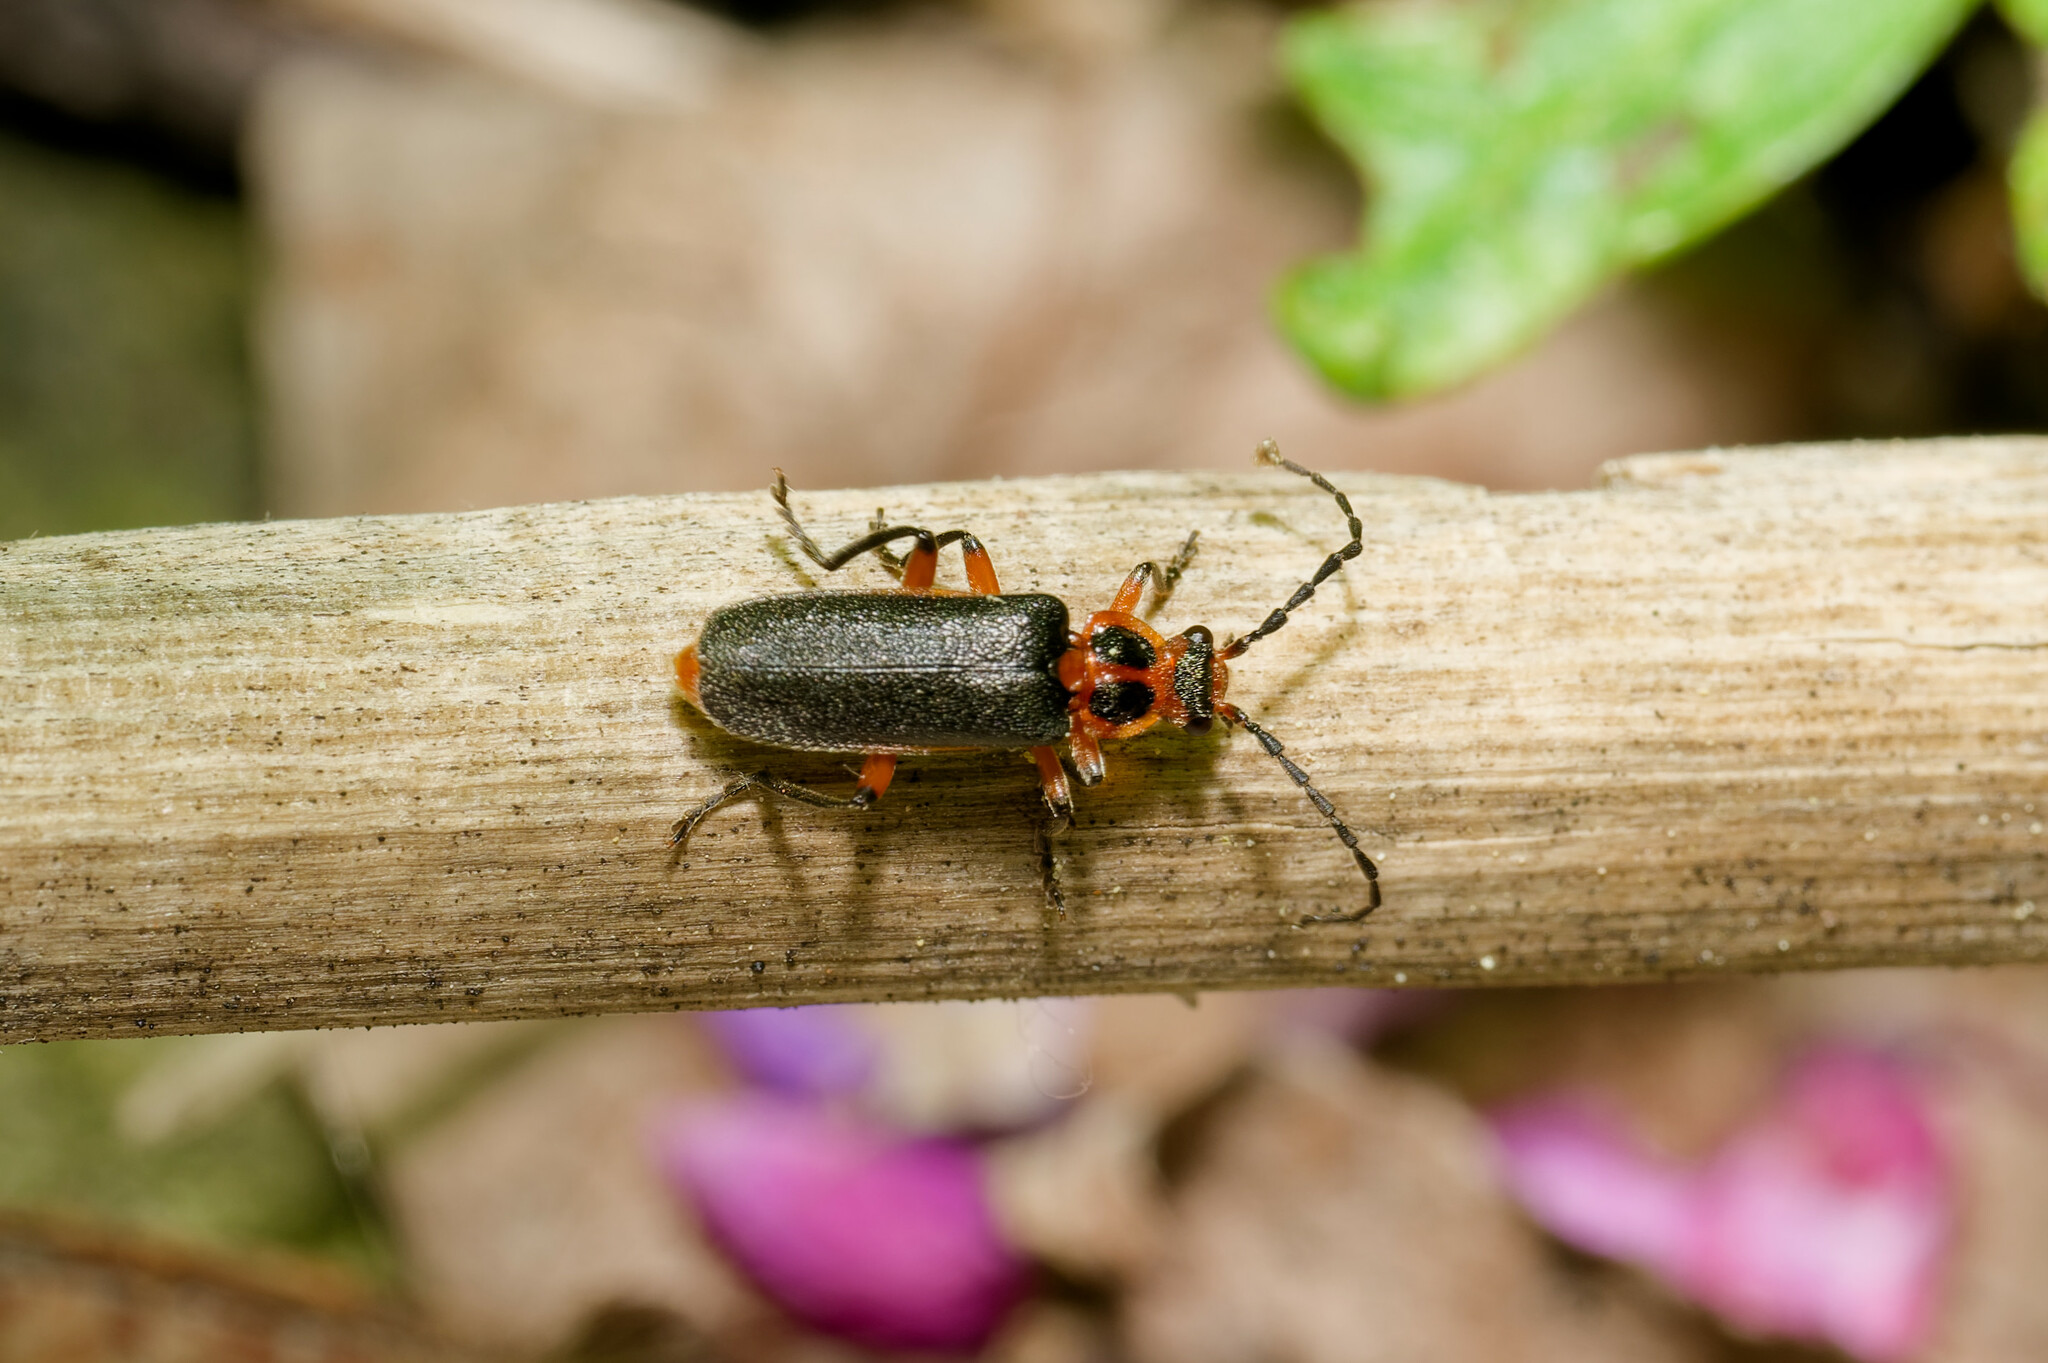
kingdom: Animalia
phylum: Arthropoda
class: Insecta
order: Coleoptera
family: Cantharidae
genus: Atalantycha
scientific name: Atalantycha bilineata
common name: Two-lined leatherwing
